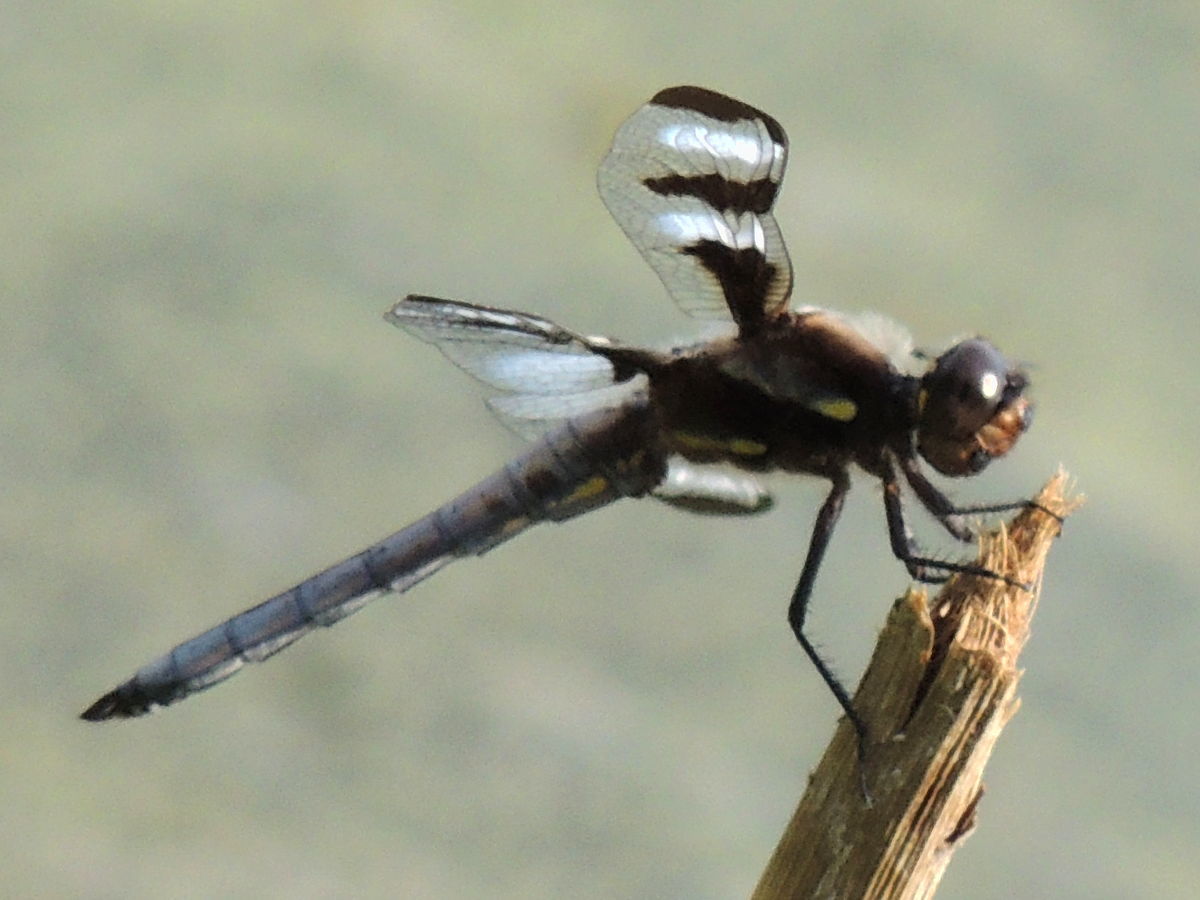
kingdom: Animalia
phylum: Arthropoda
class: Insecta
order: Odonata
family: Libellulidae
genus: Libellula
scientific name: Libellula pulchella
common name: Twelve-spotted skimmer
